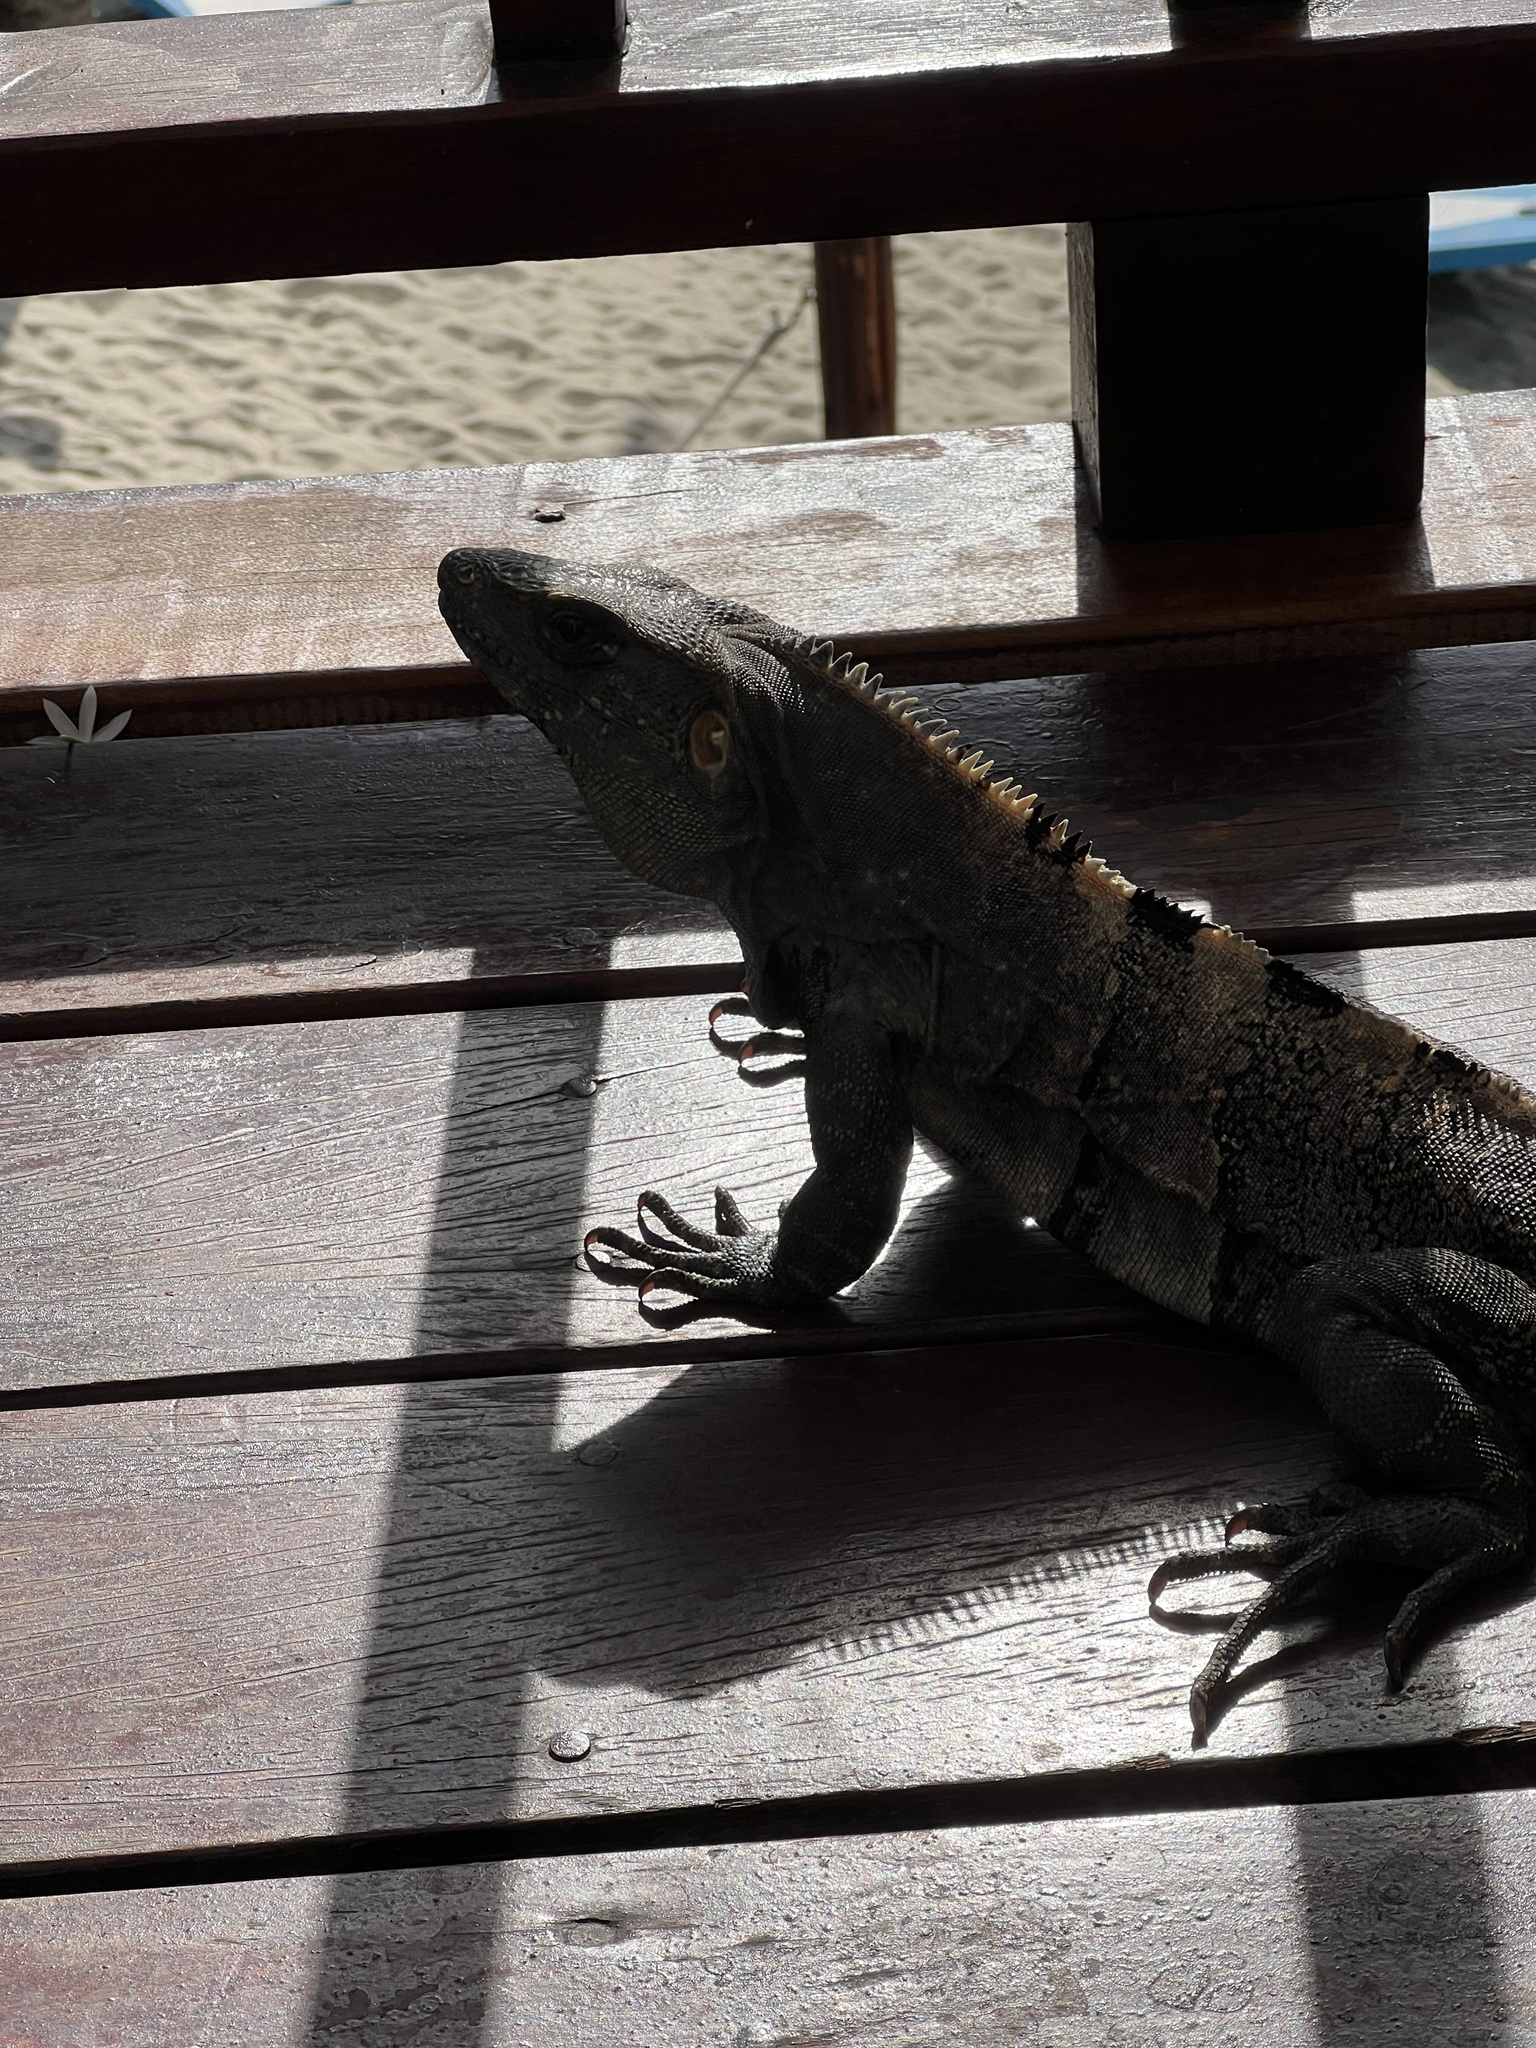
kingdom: Animalia
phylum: Chordata
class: Squamata
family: Iguanidae
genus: Ctenosaura
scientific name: Ctenosaura similis
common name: Black spiny-tailed iguana
